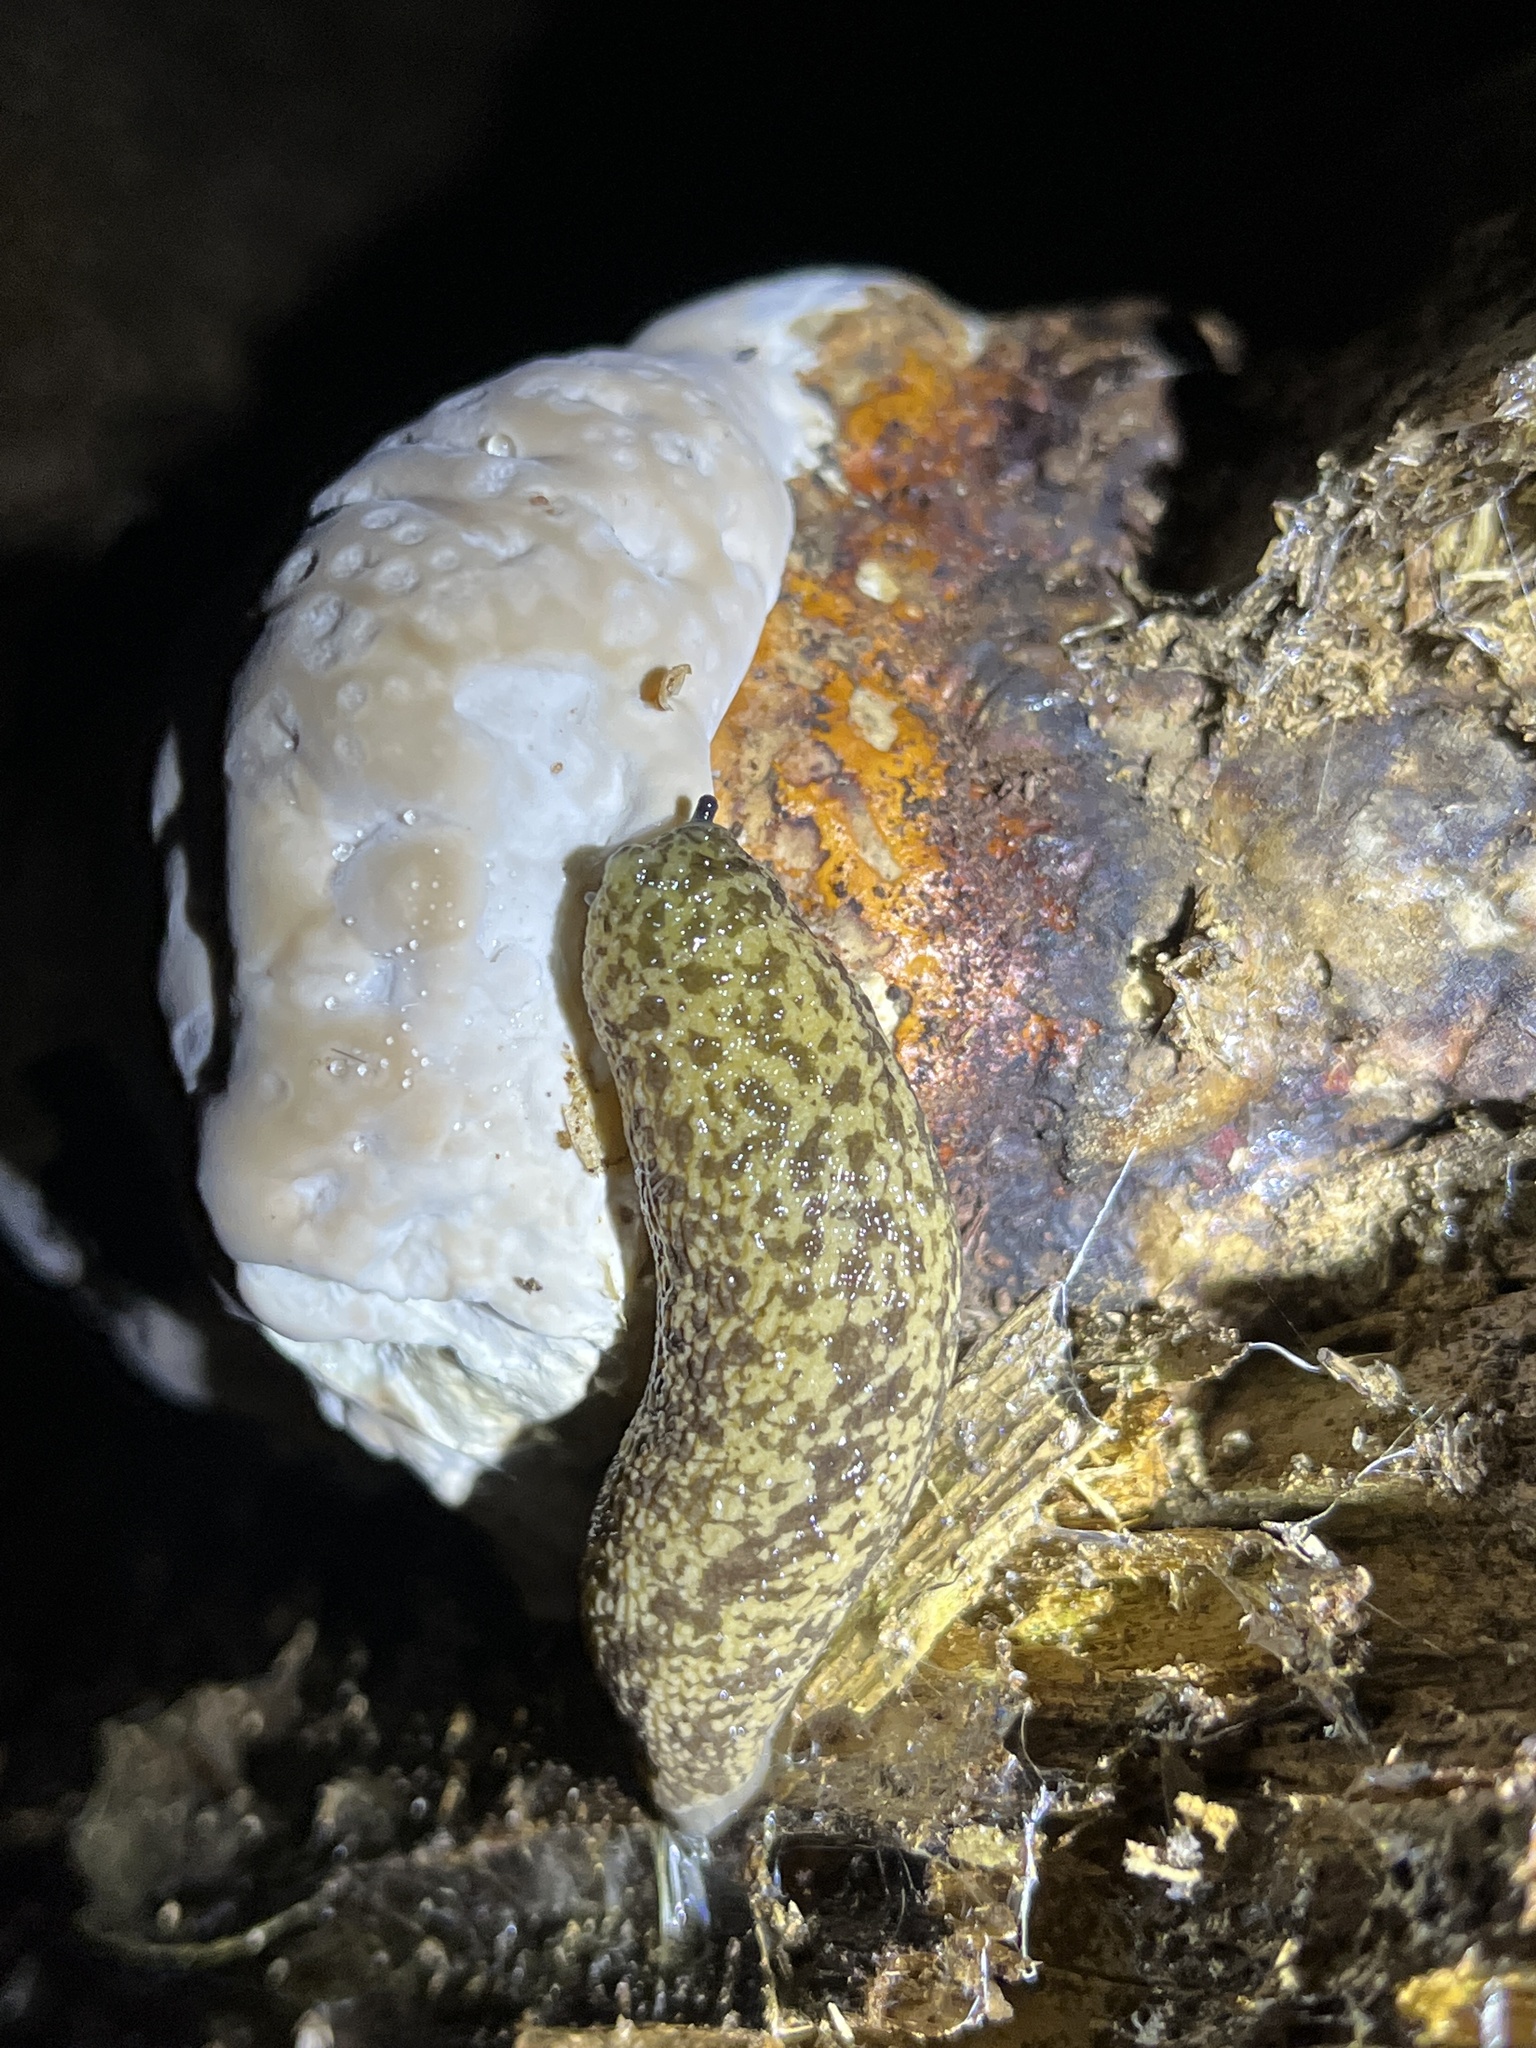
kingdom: Animalia
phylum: Mollusca
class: Gastropoda
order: Stylommatophora
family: Philomycidae
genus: Philomycus
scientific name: Philomycus flexuolaris
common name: Winding mantleslug
